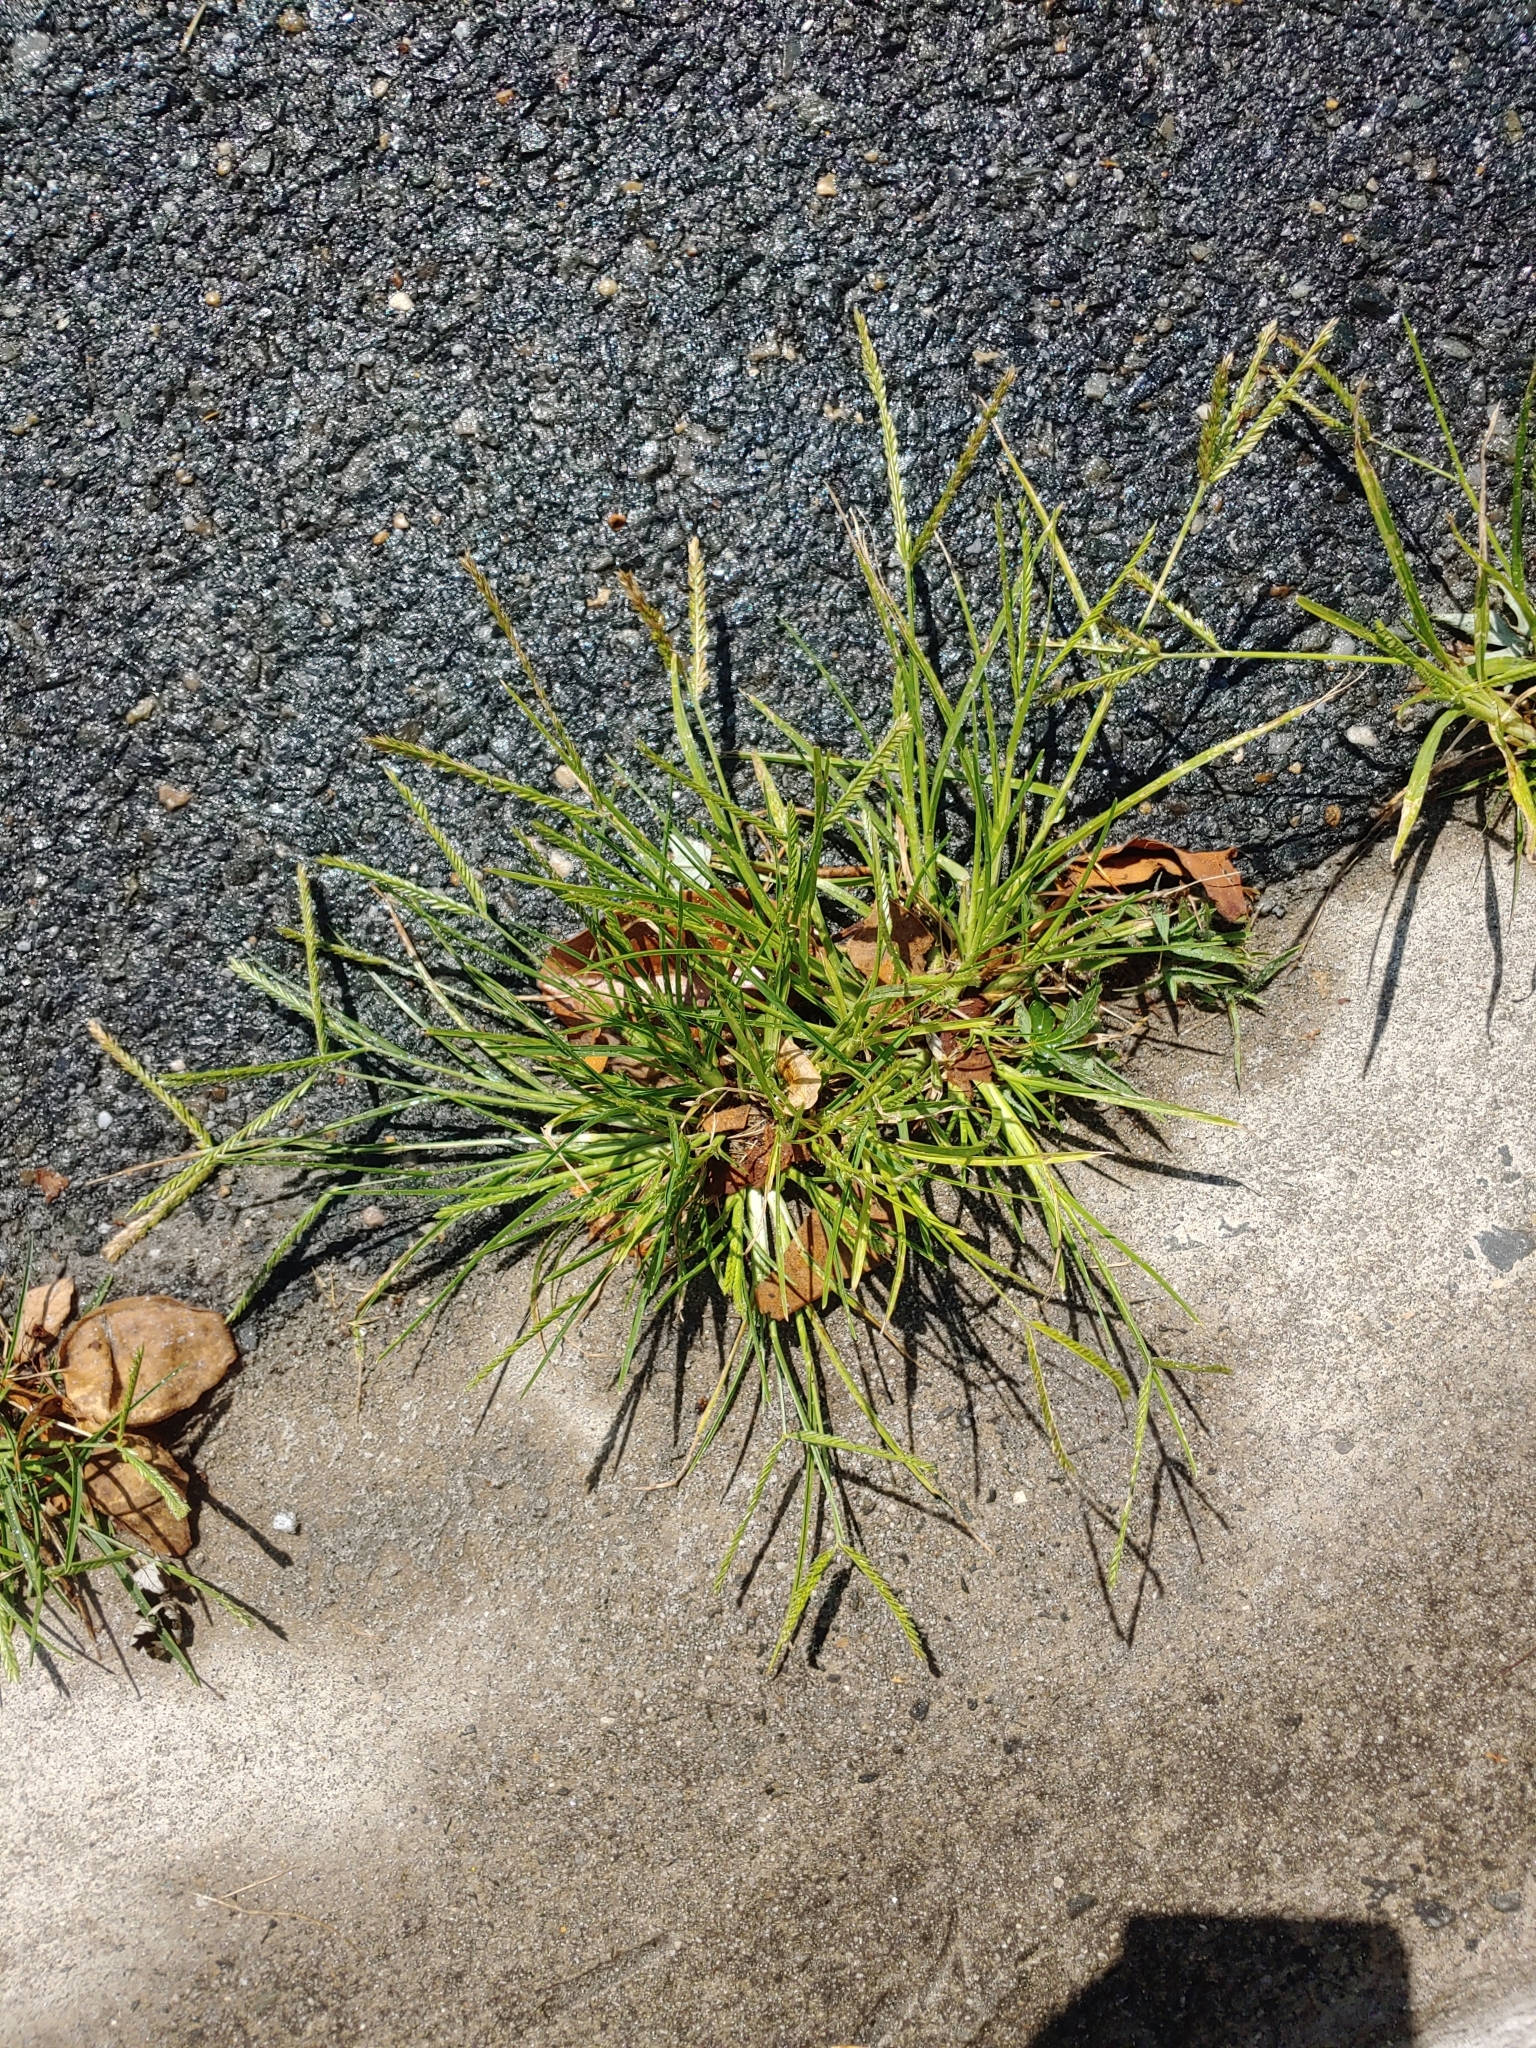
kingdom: Plantae
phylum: Tracheophyta
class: Liliopsida
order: Poales
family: Poaceae
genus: Eleusine
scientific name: Eleusine indica
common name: Yard-grass
